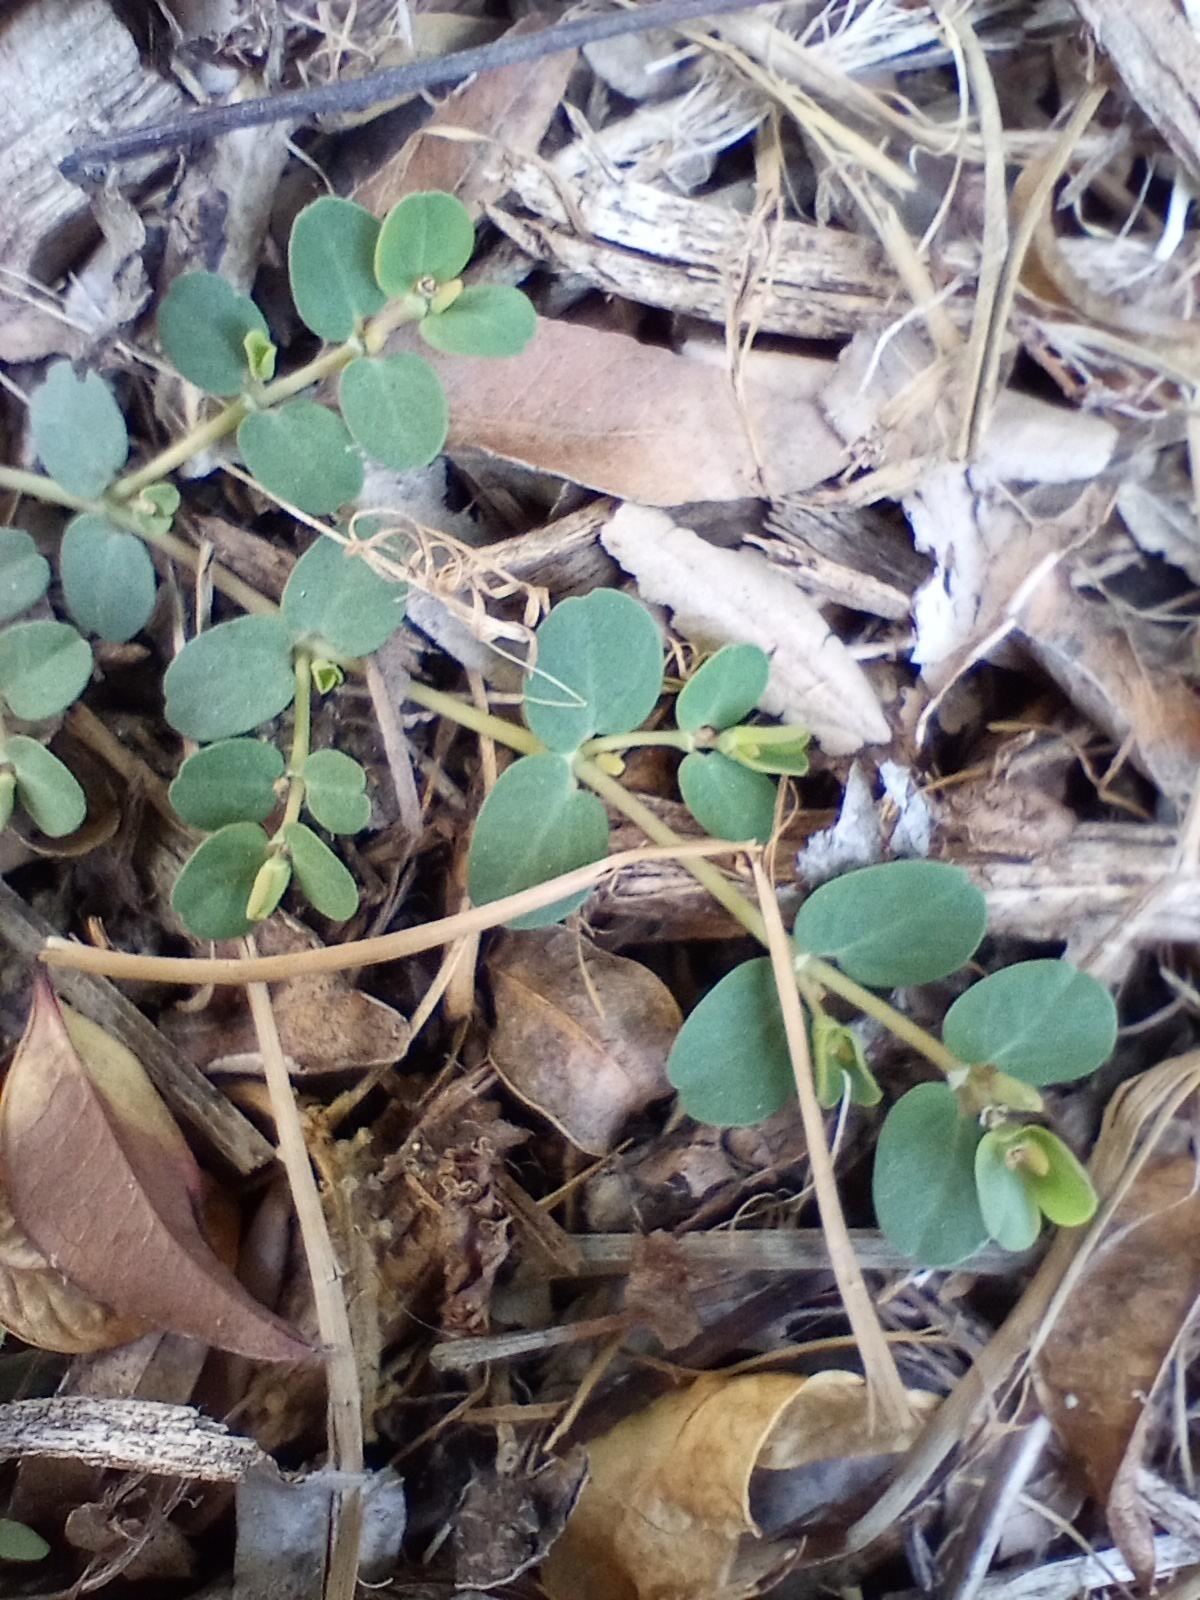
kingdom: Plantae
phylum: Tracheophyta
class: Magnoliopsida
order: Malpighiales
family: Euphorbiaceae
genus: Euphorbia
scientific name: Euphorbia serpens
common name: Matted sandmat
